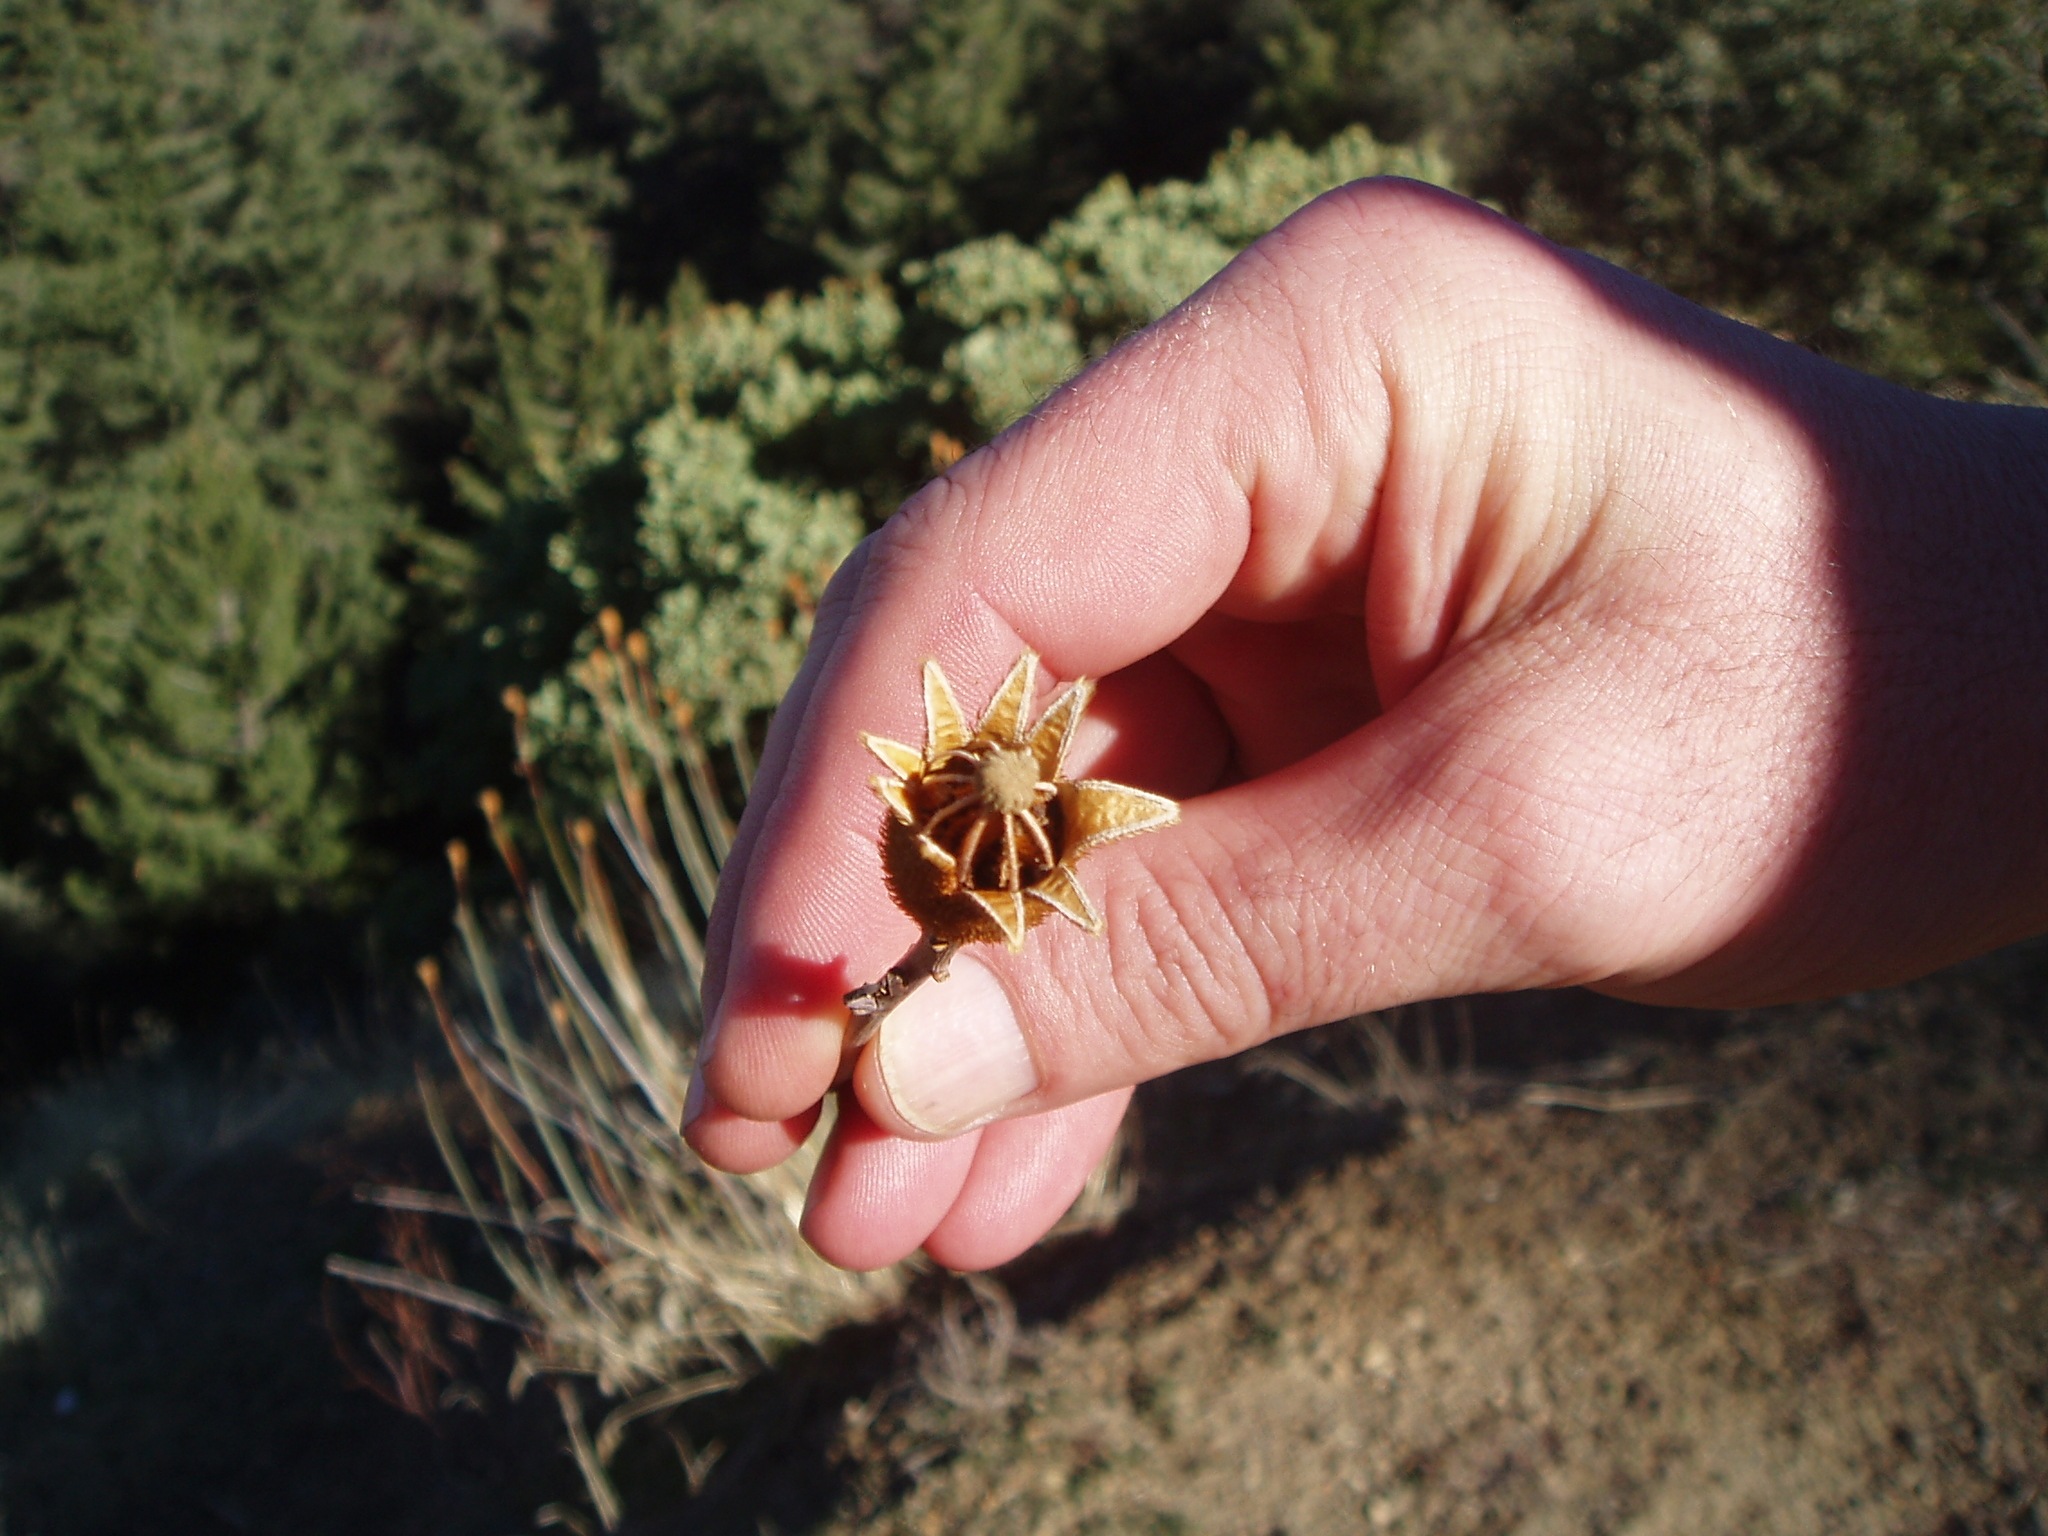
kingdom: Plantae
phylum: Tracheophyta
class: Magnoliopsida
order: Ranunculales
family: Papaveraceae
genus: Romneya
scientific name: Romneya trichocalyx
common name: Hairy matilija-poppy
